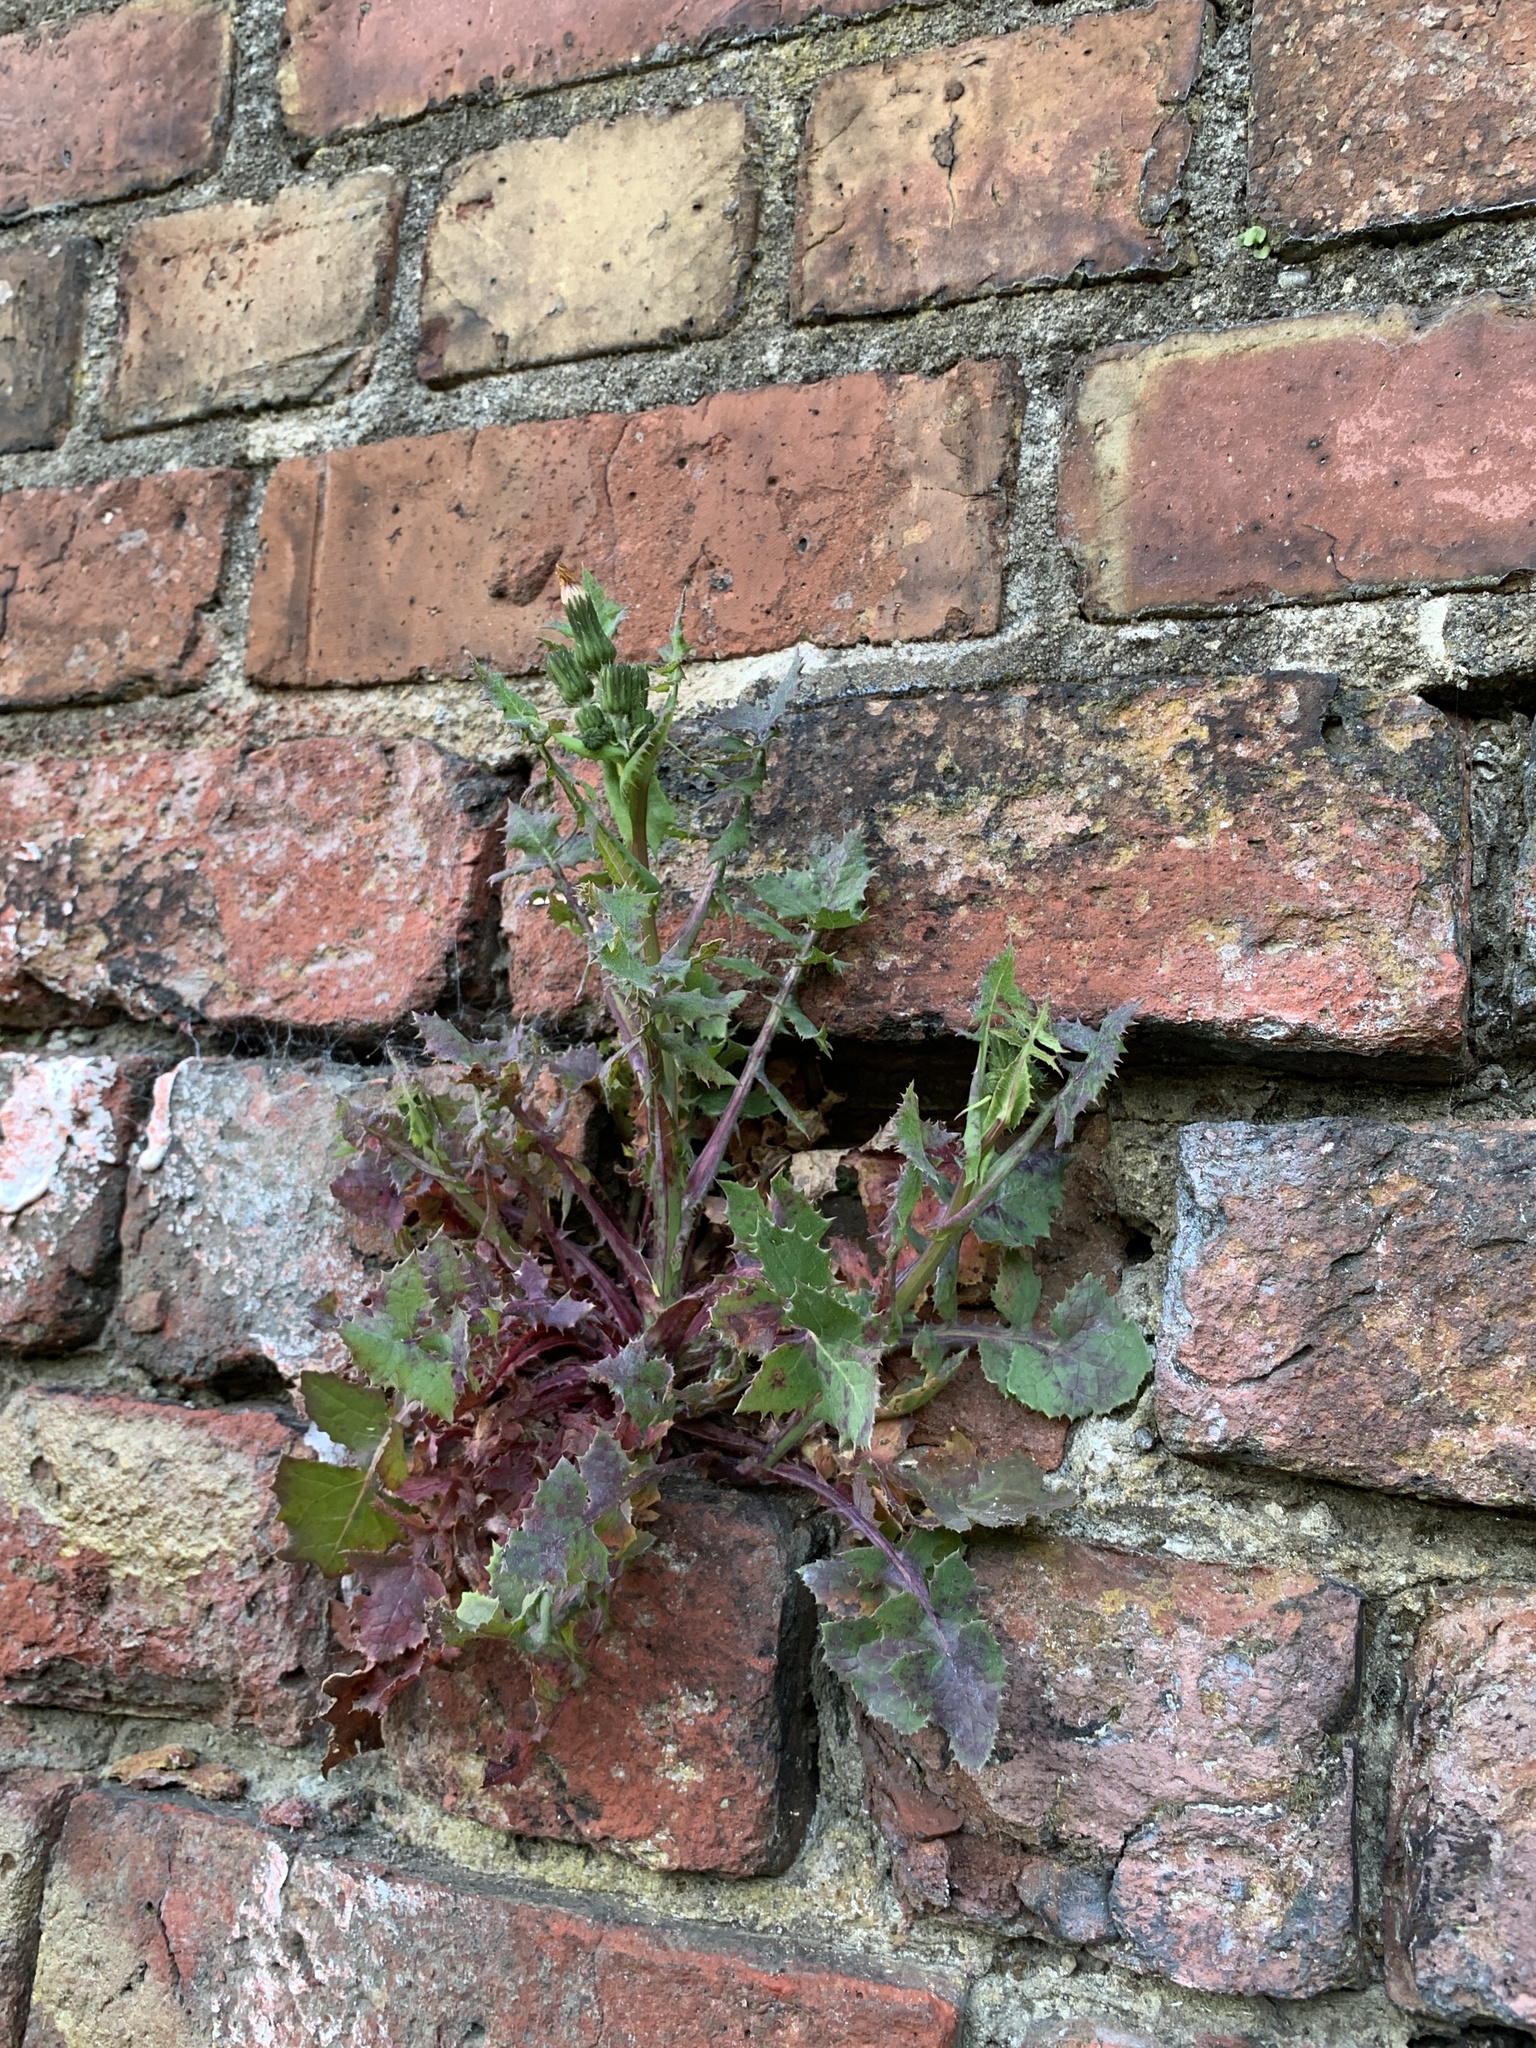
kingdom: Plantae
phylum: Tracheophyta
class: Magnoliopsida
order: Asterales
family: Asteraceae
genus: Sonchus
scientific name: Sonchus oleraceus
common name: Common sowthistle
